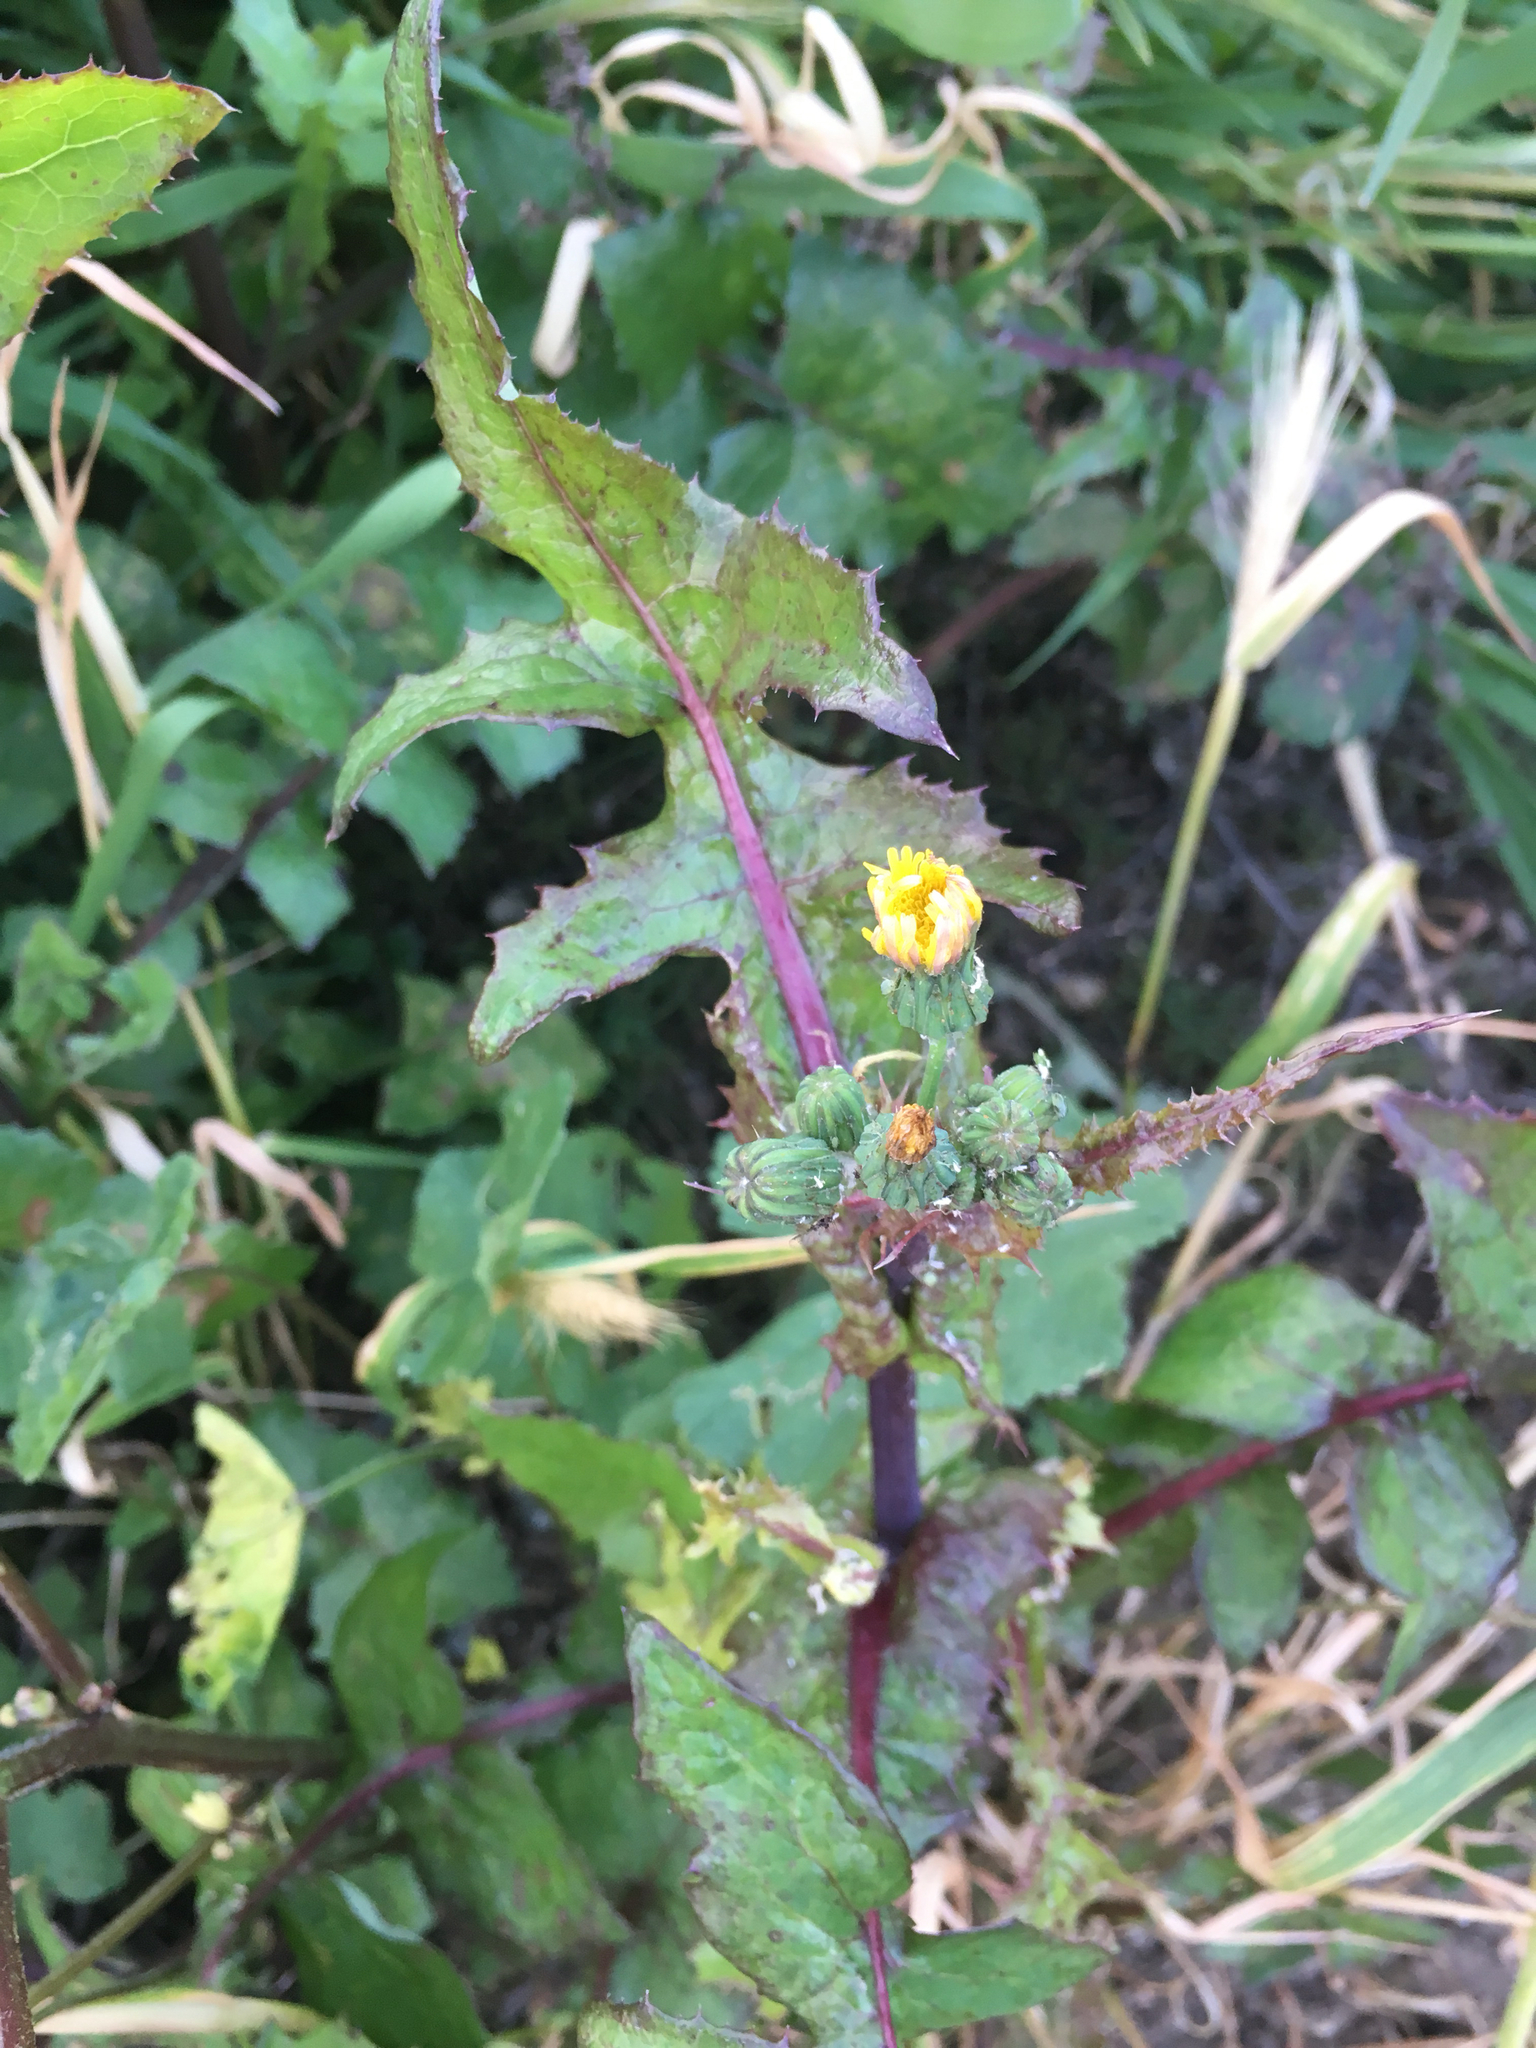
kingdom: Plantae
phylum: Tracheophyta
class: Magnoliopsida
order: Asterales
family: Asteraceae
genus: Sonchus
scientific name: Sonchus oleraceus
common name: Common sowthistle
